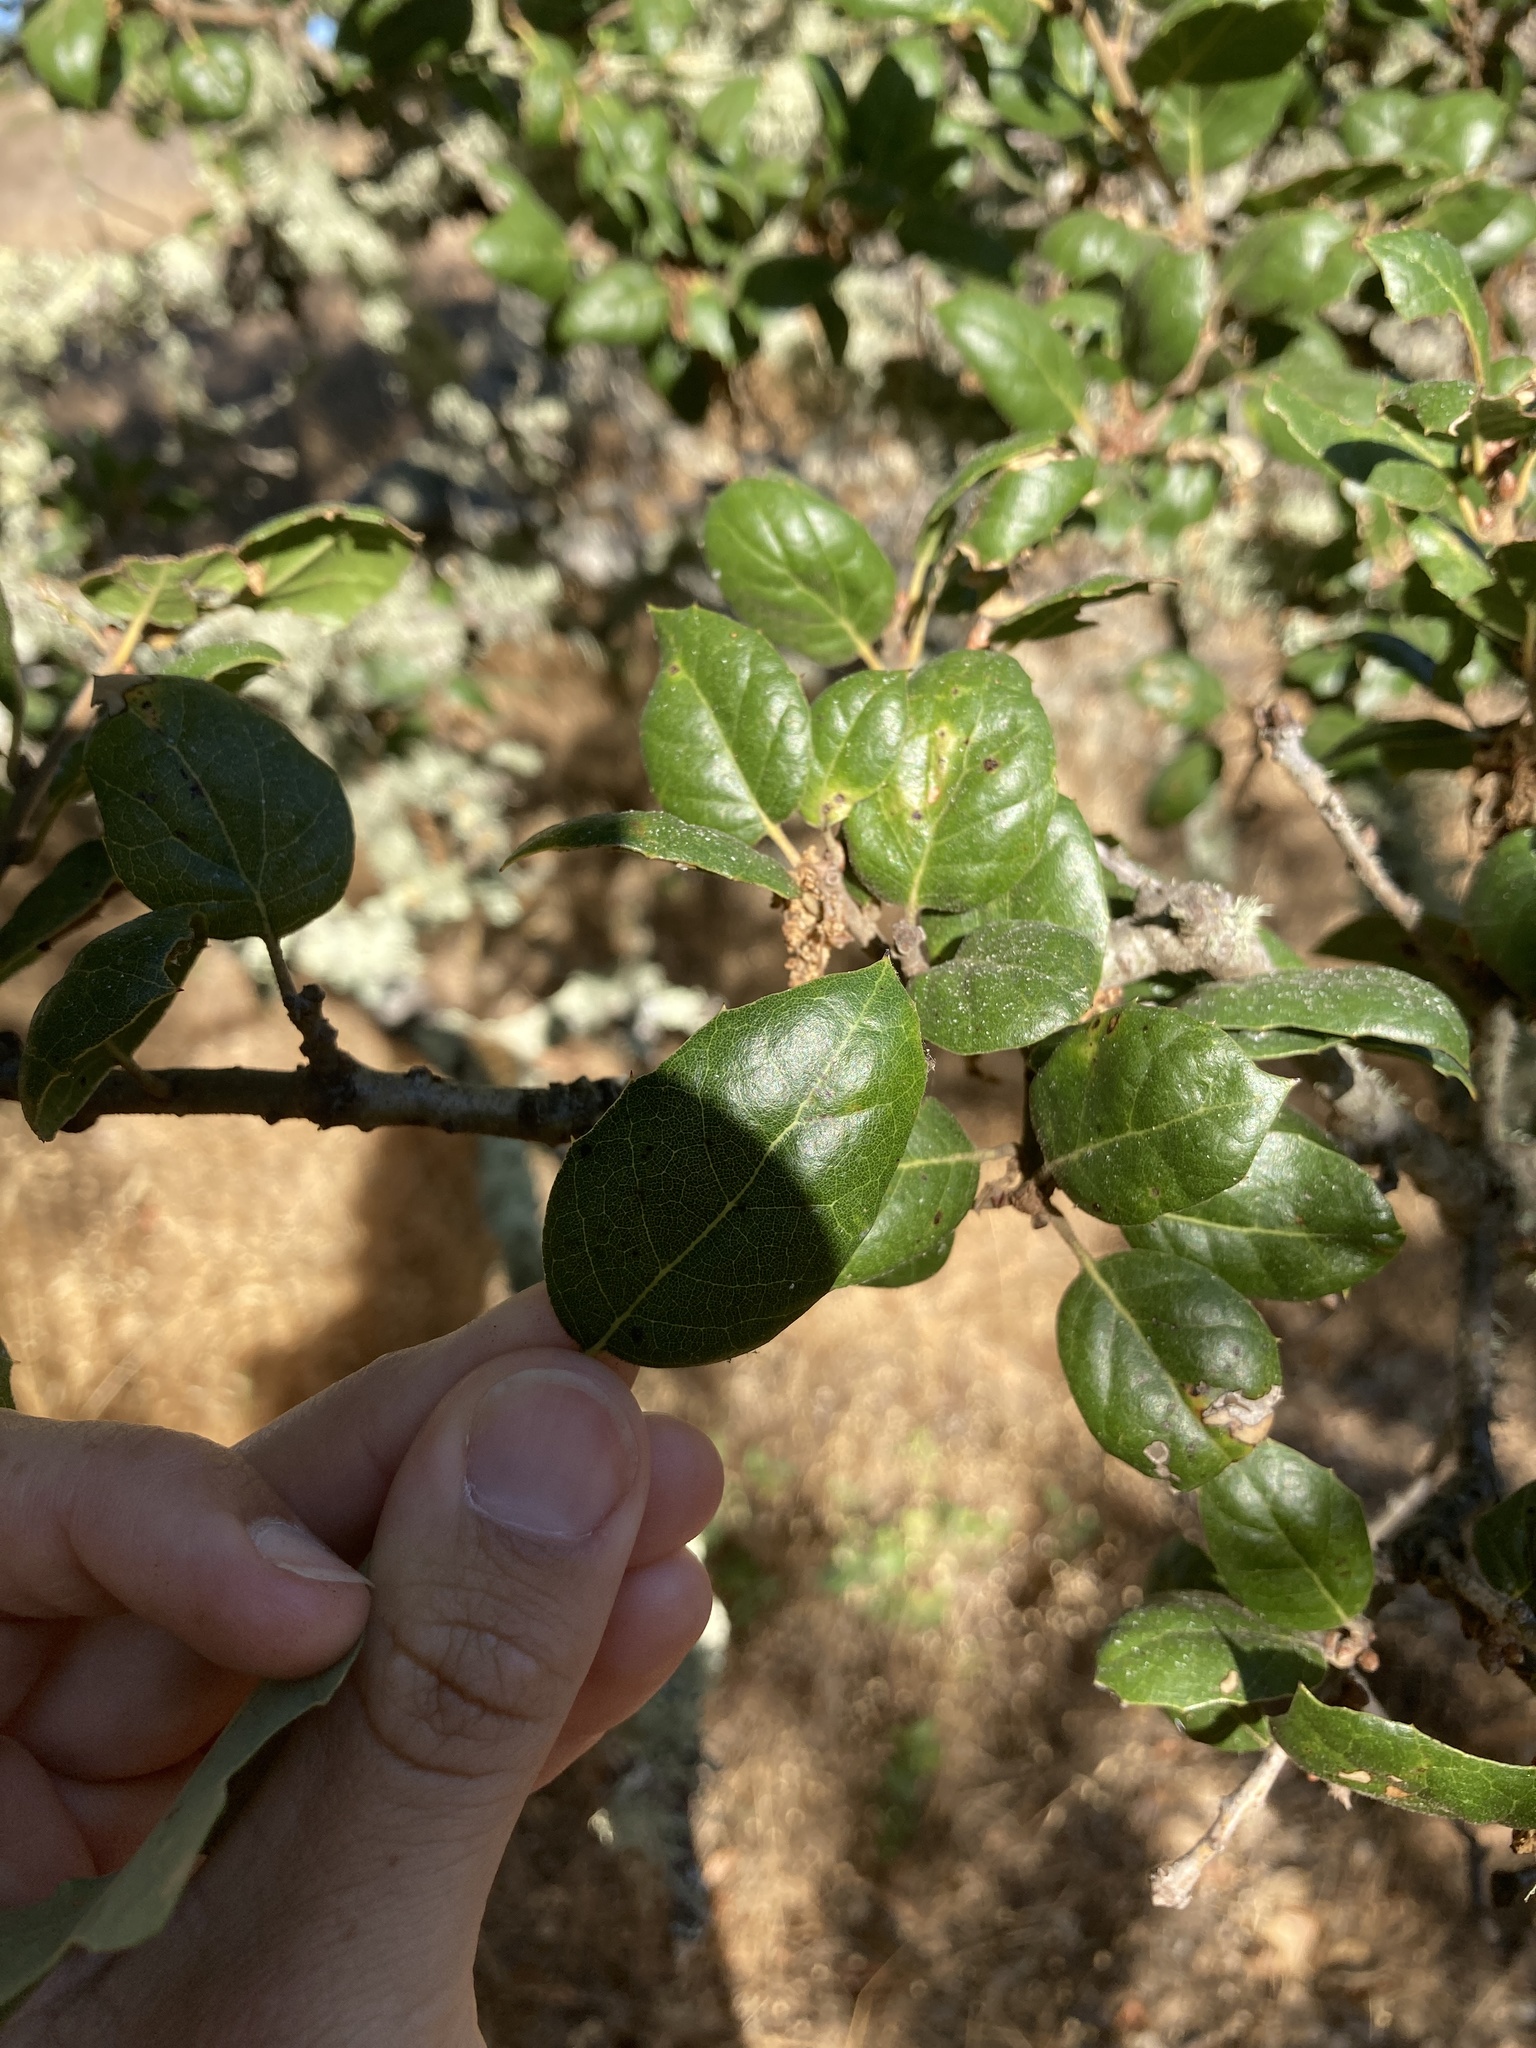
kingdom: Plantae
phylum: Tracheophyta
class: Magnoliopsida
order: Fagales
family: Fagaceae
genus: Quercus
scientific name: Quercus agrifolia
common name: California live oak
